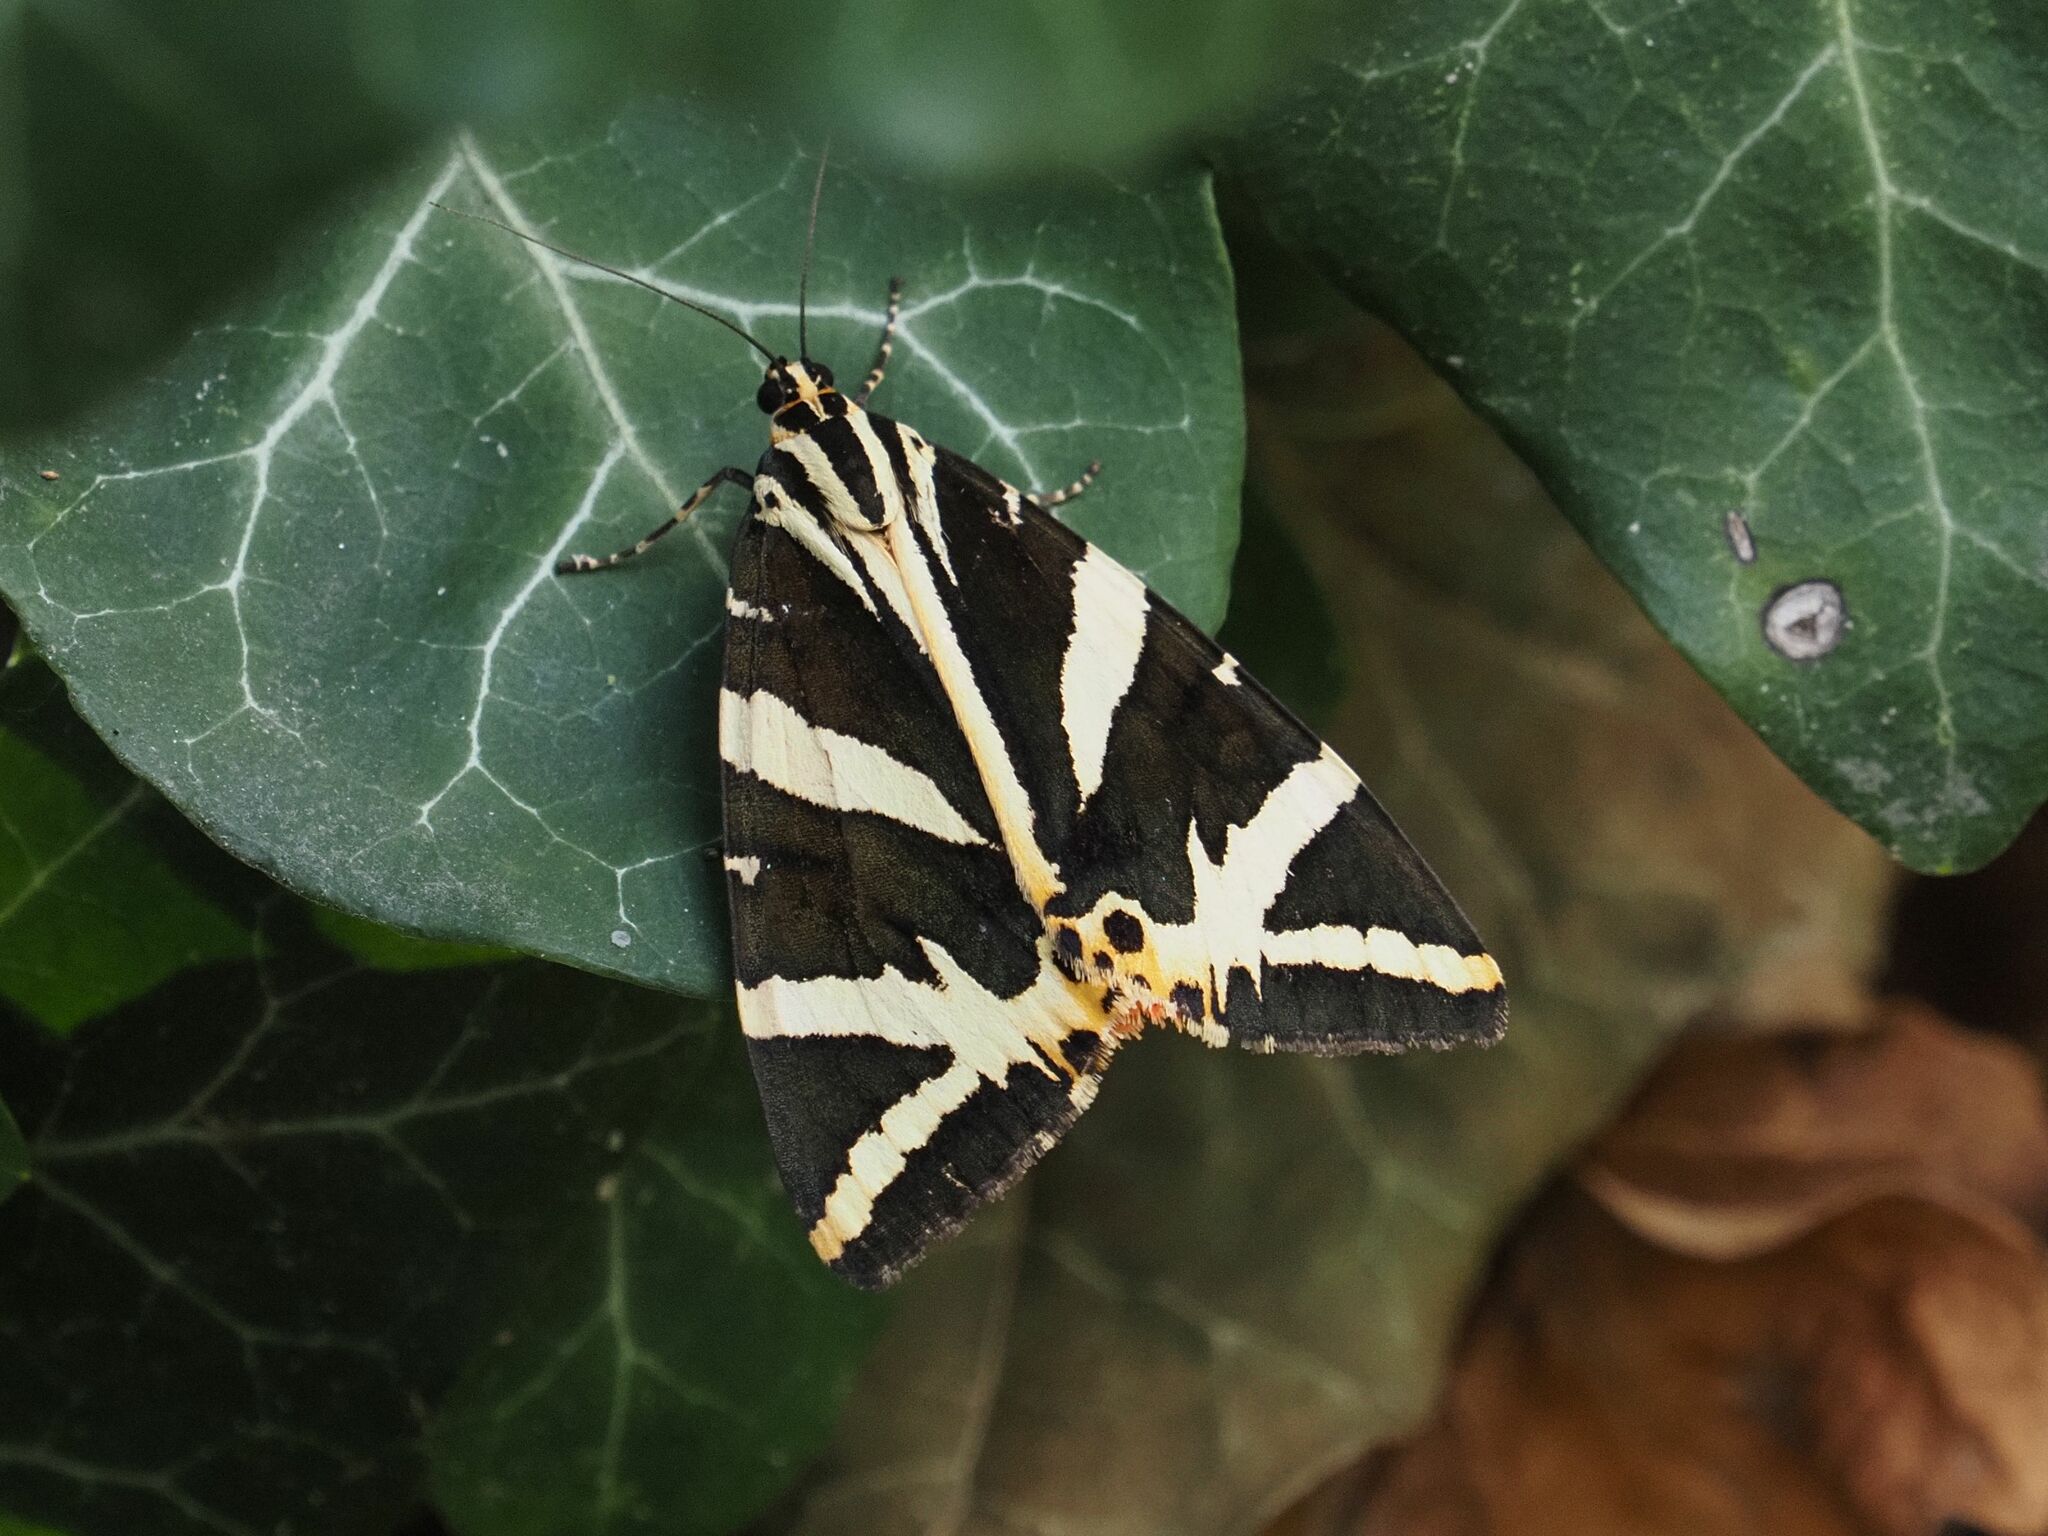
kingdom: Animalia
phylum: Arthropoda
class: Insecta
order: Lepidoptera
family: Erebidae
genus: Euplagia
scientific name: Euplagia quadripunctaria
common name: Jersey tiger
